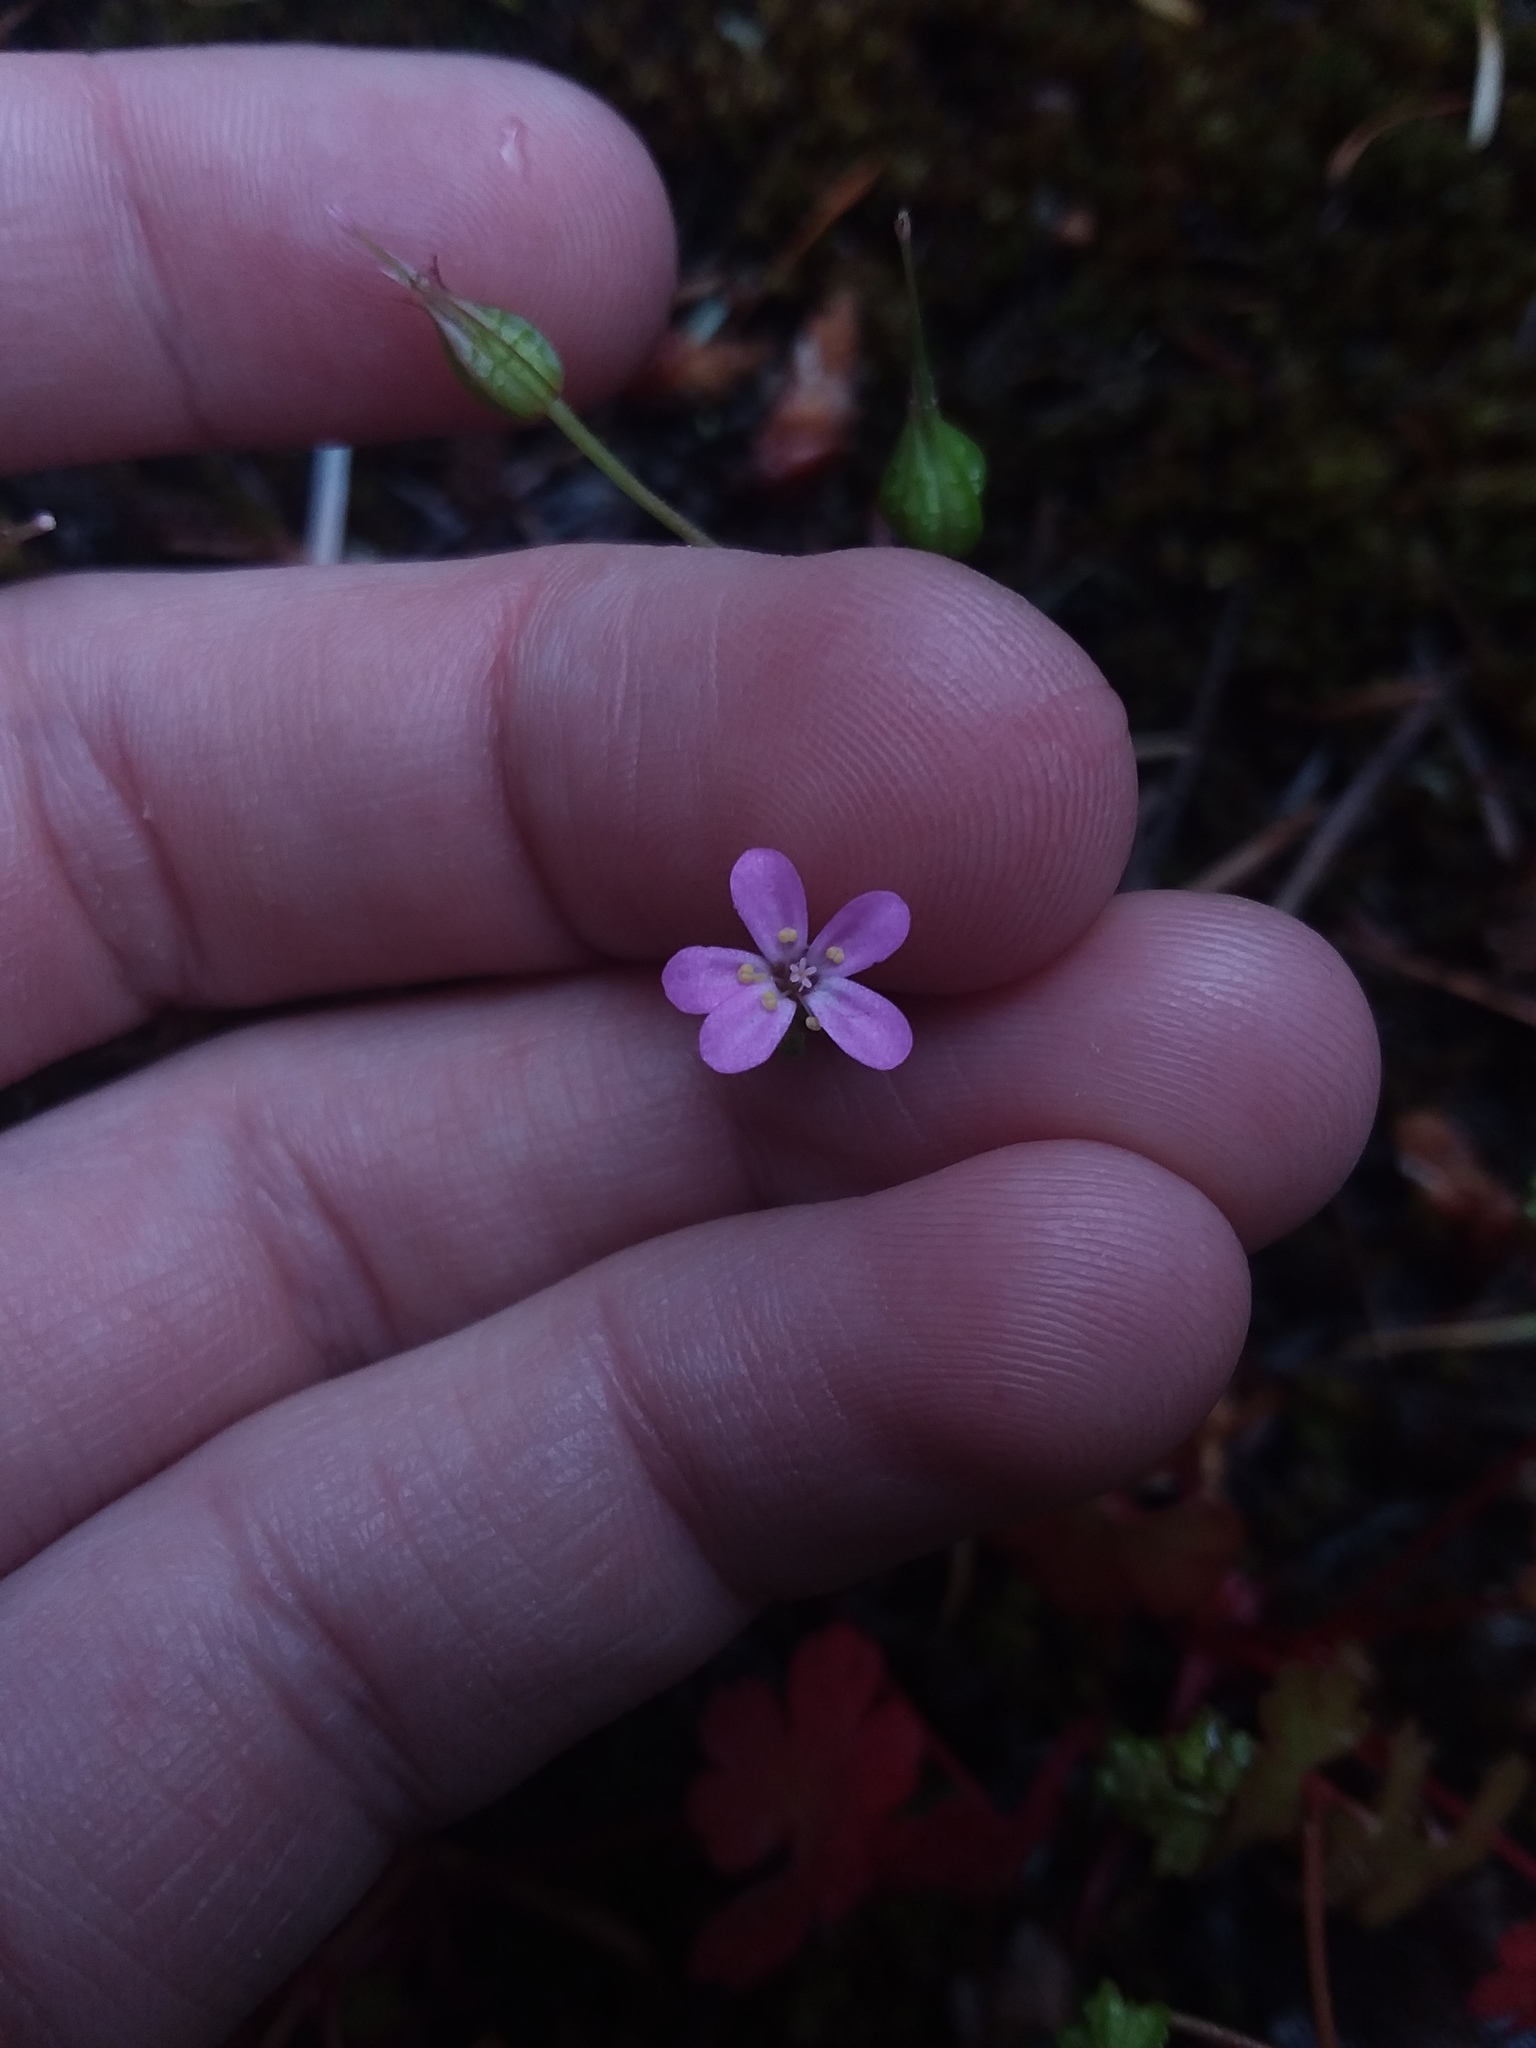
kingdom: Plantae
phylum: Tracheophyta
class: Magnoliopsida
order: Geraniales
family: Geraniaceae
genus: Geranium
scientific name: Geranium lucidum
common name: Shining crane's-bill
